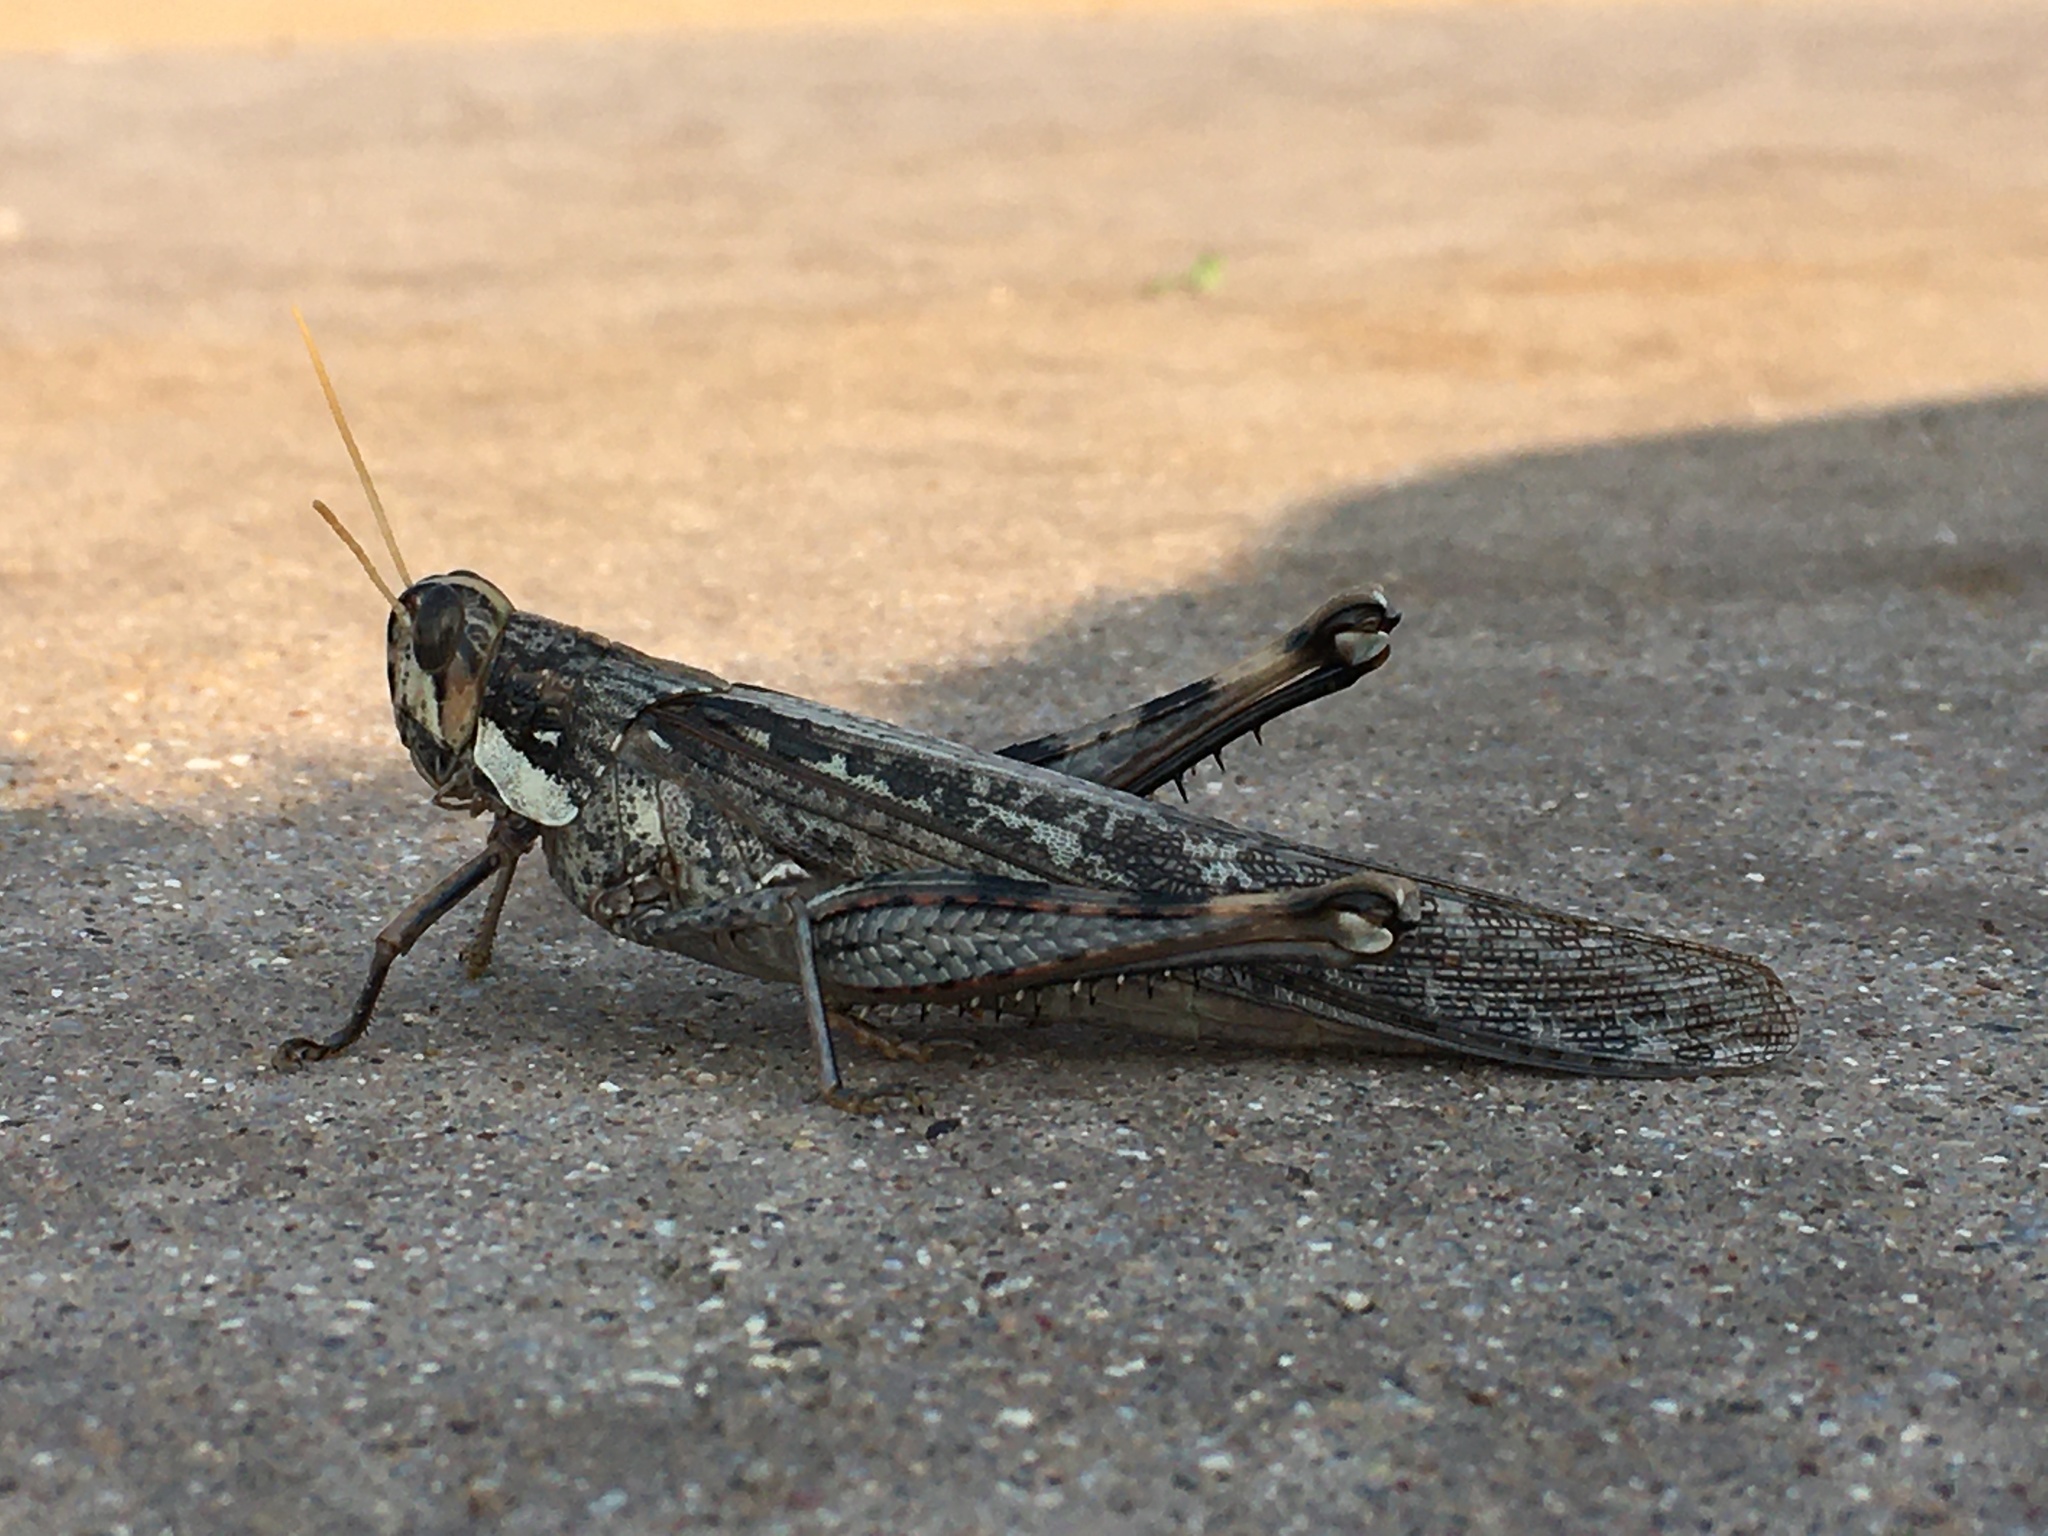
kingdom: Animalia
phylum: Arthropoda
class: Insecta
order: Orthoptera
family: Acrididae
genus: Schistocerca
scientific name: Schistocerca nitens
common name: Vagrant grasshopper
